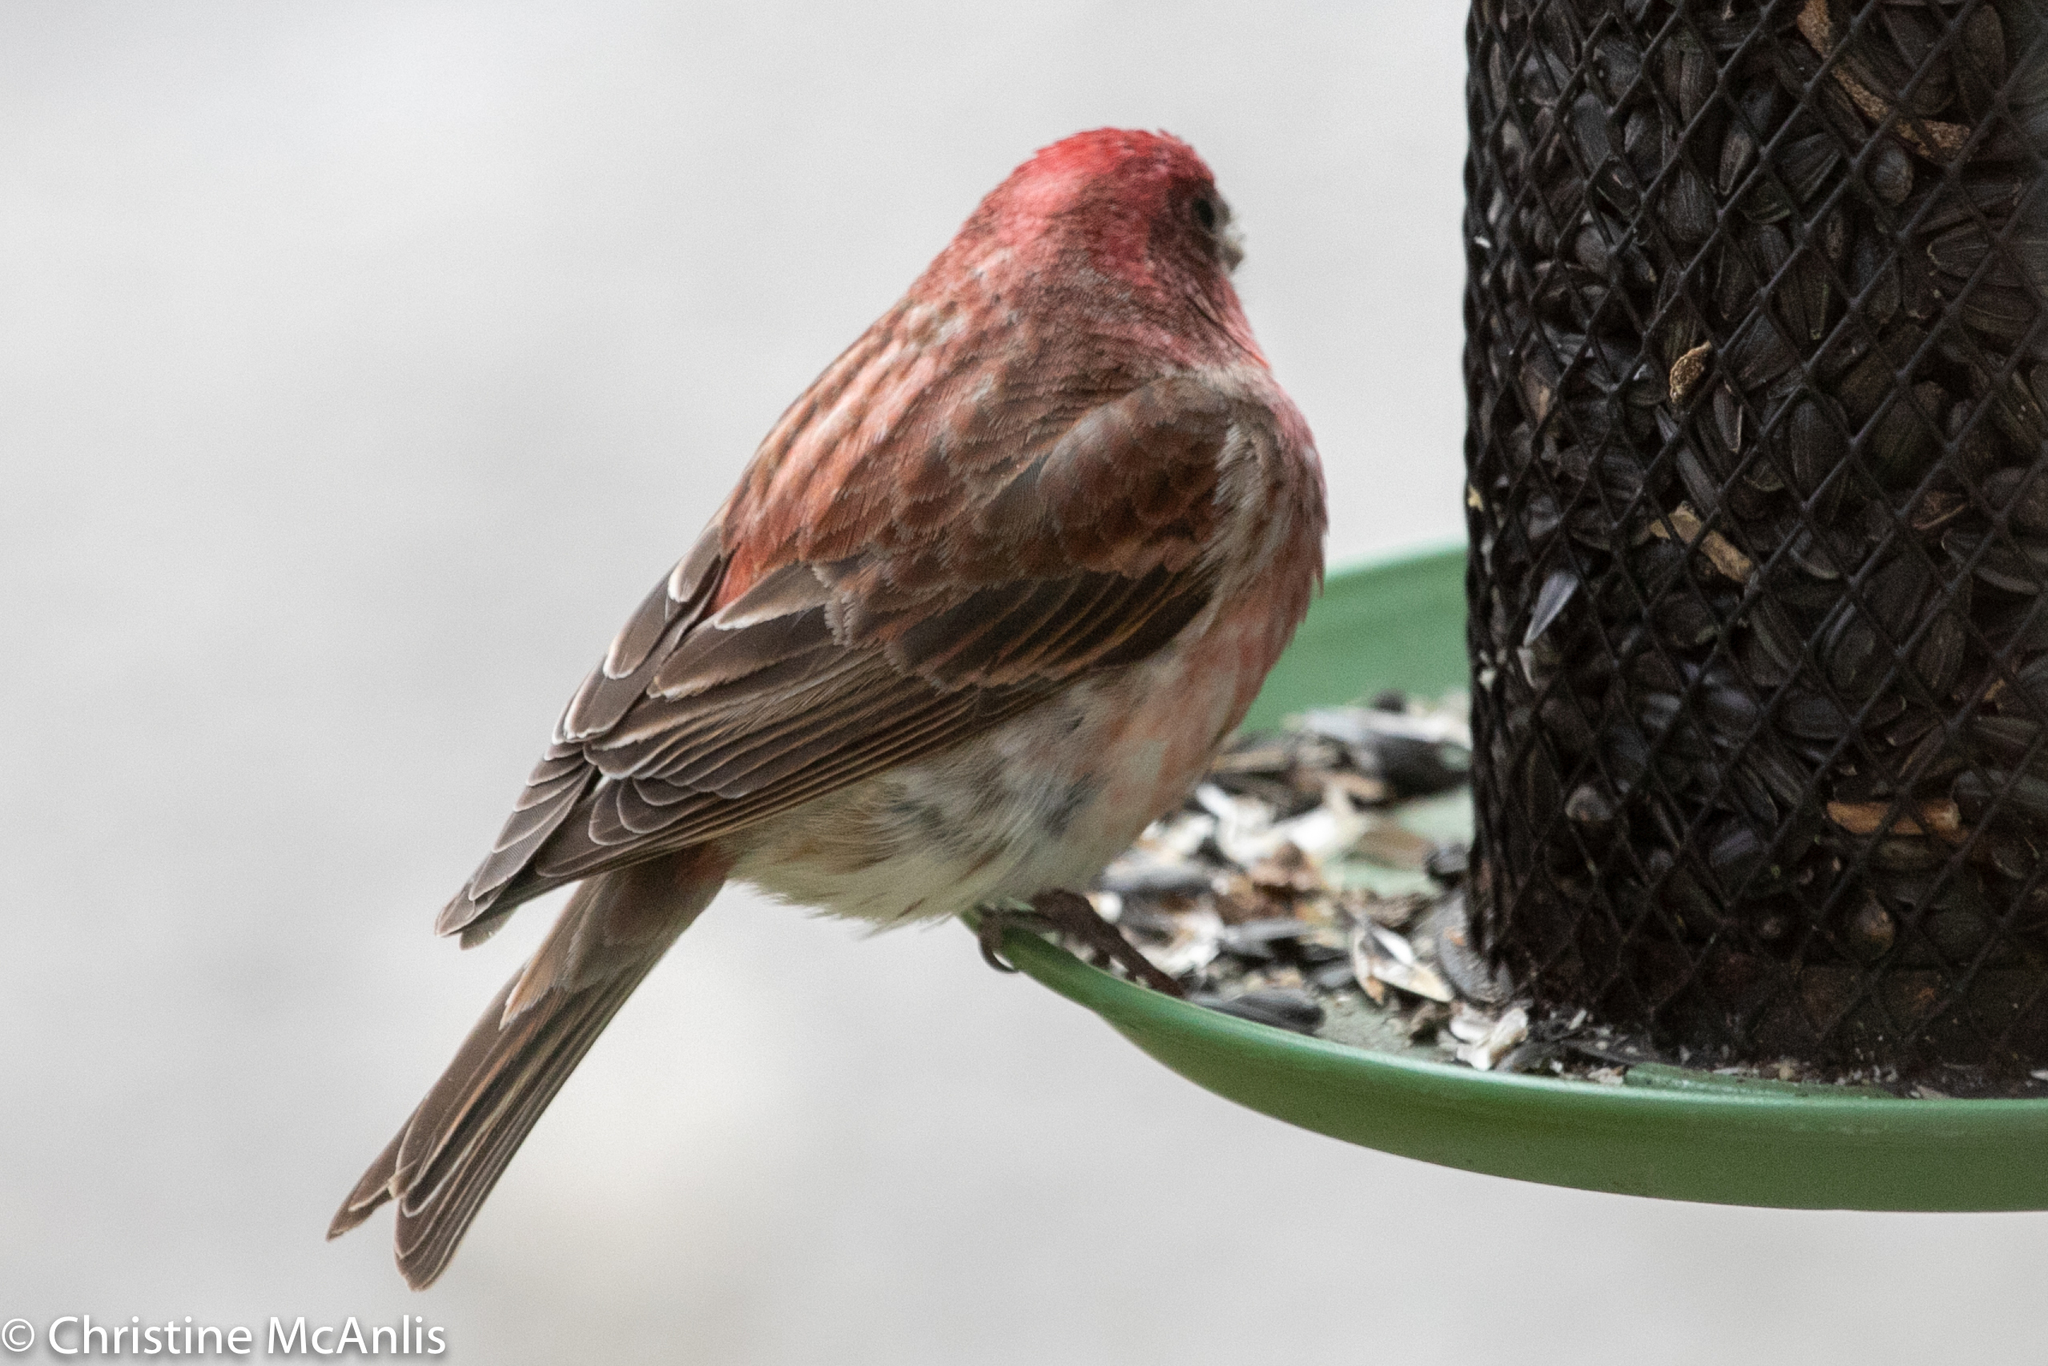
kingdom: Animalia
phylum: Chordata
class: Aves
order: Passeriformes
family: Fringillidae
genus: Haemorhous
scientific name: Haemorhous purpureus
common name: Purple finch
